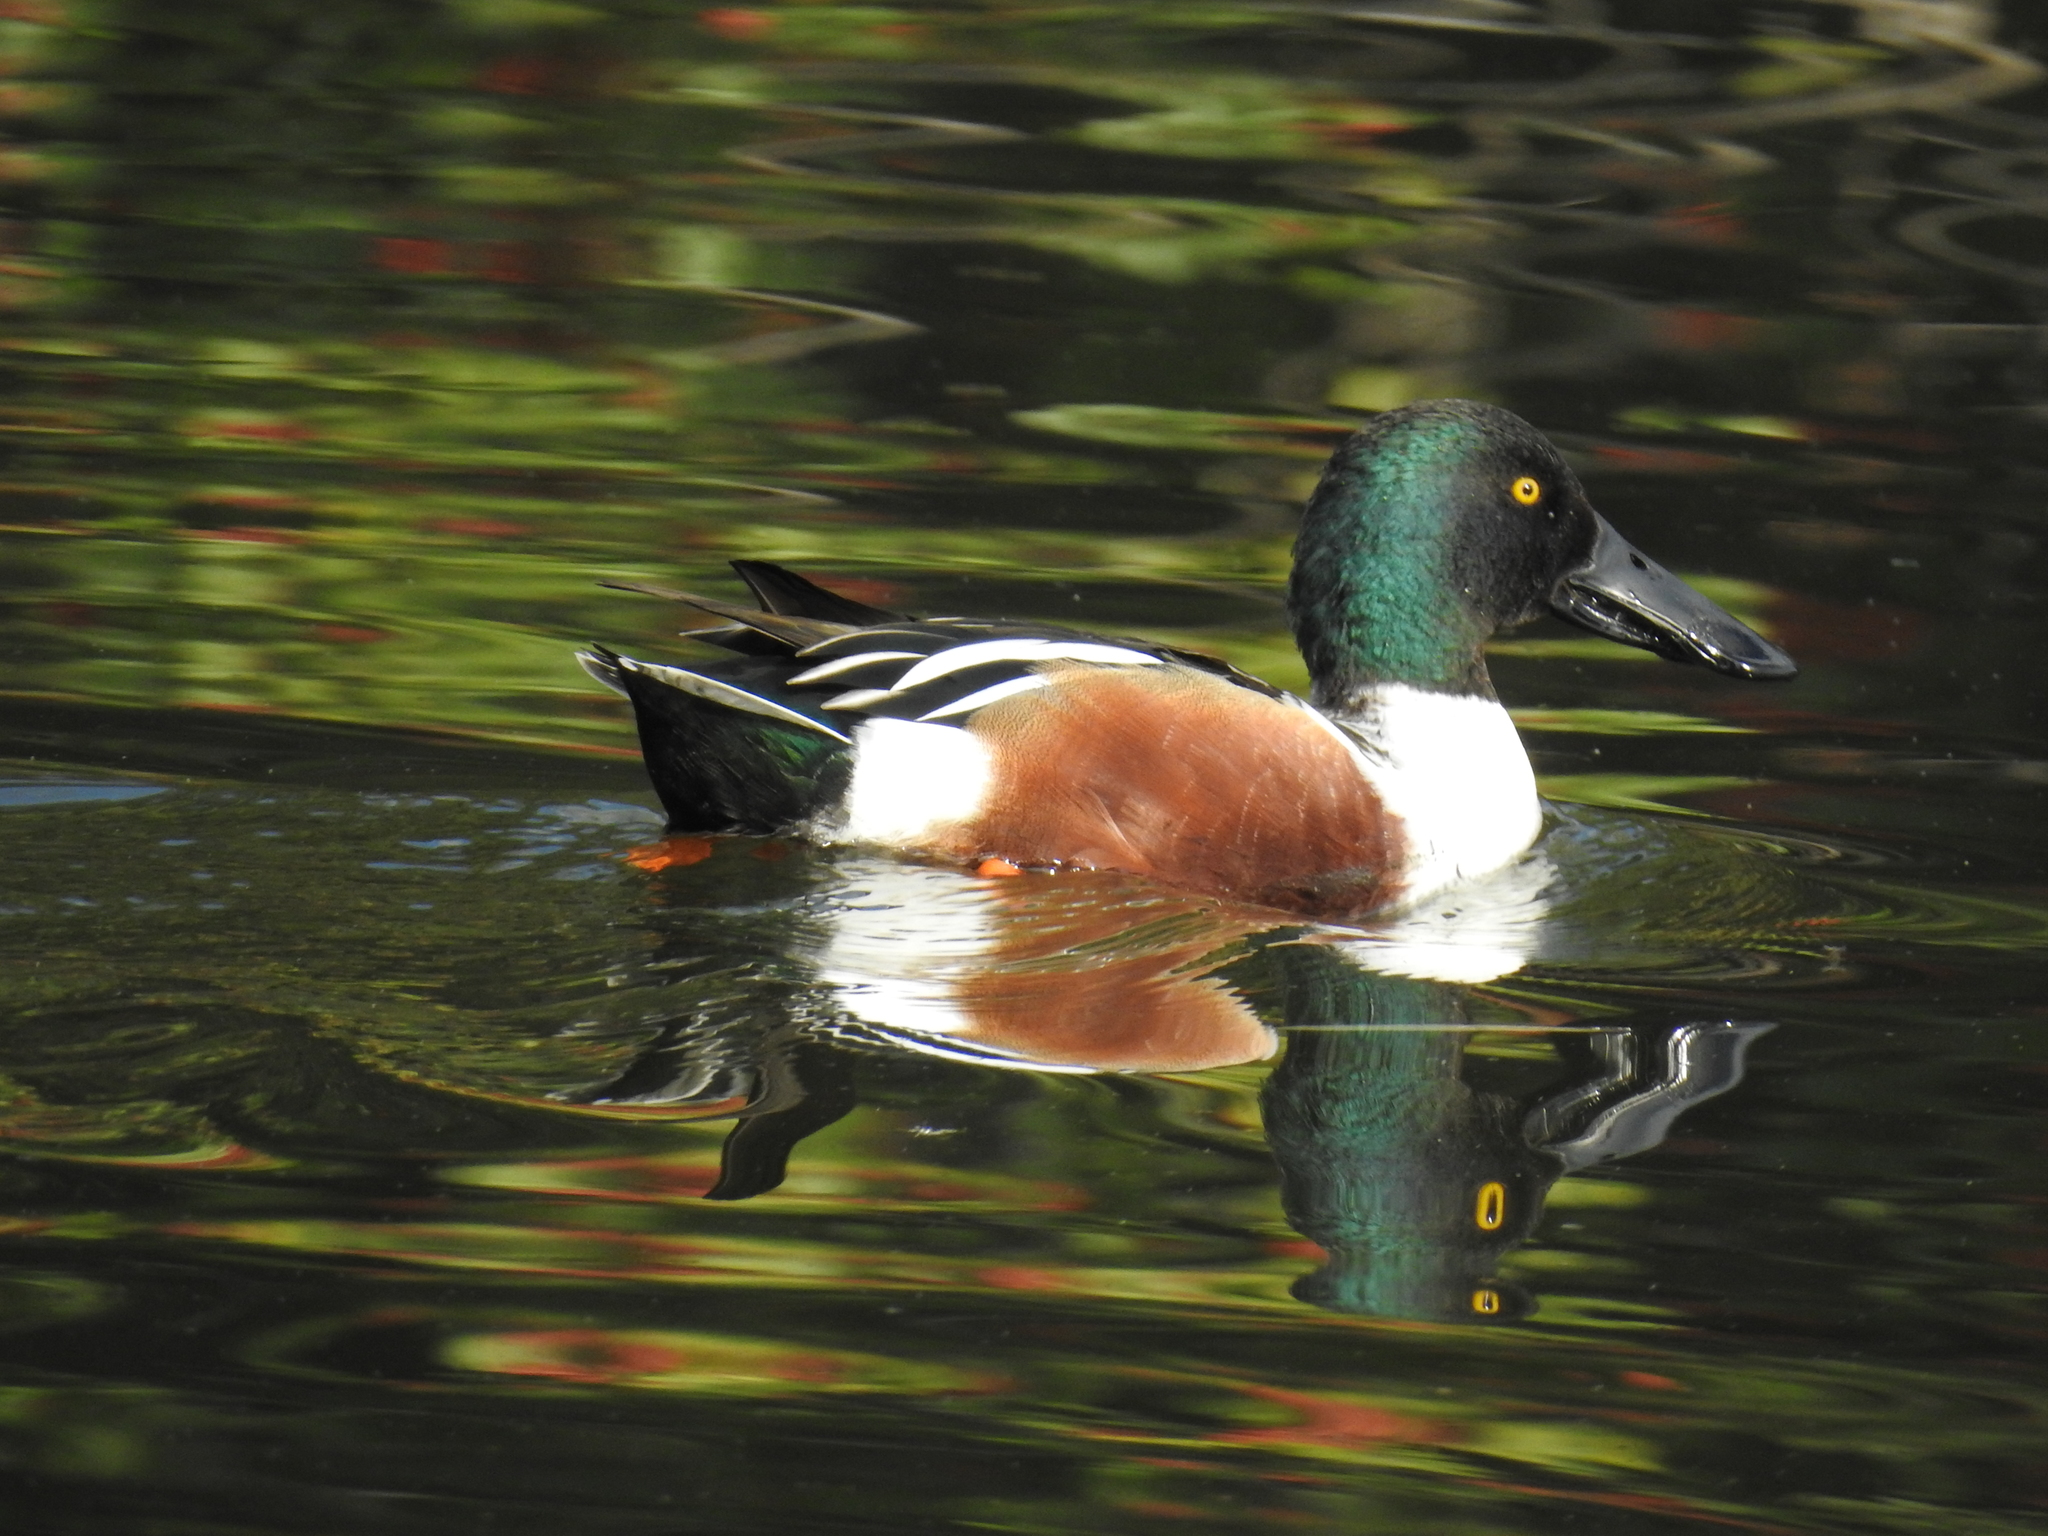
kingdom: Animalia
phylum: Chordata
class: Aves
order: Anseriformes
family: Anatidae
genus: Spatula
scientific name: Spatula clypeata
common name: Northern shoveler
